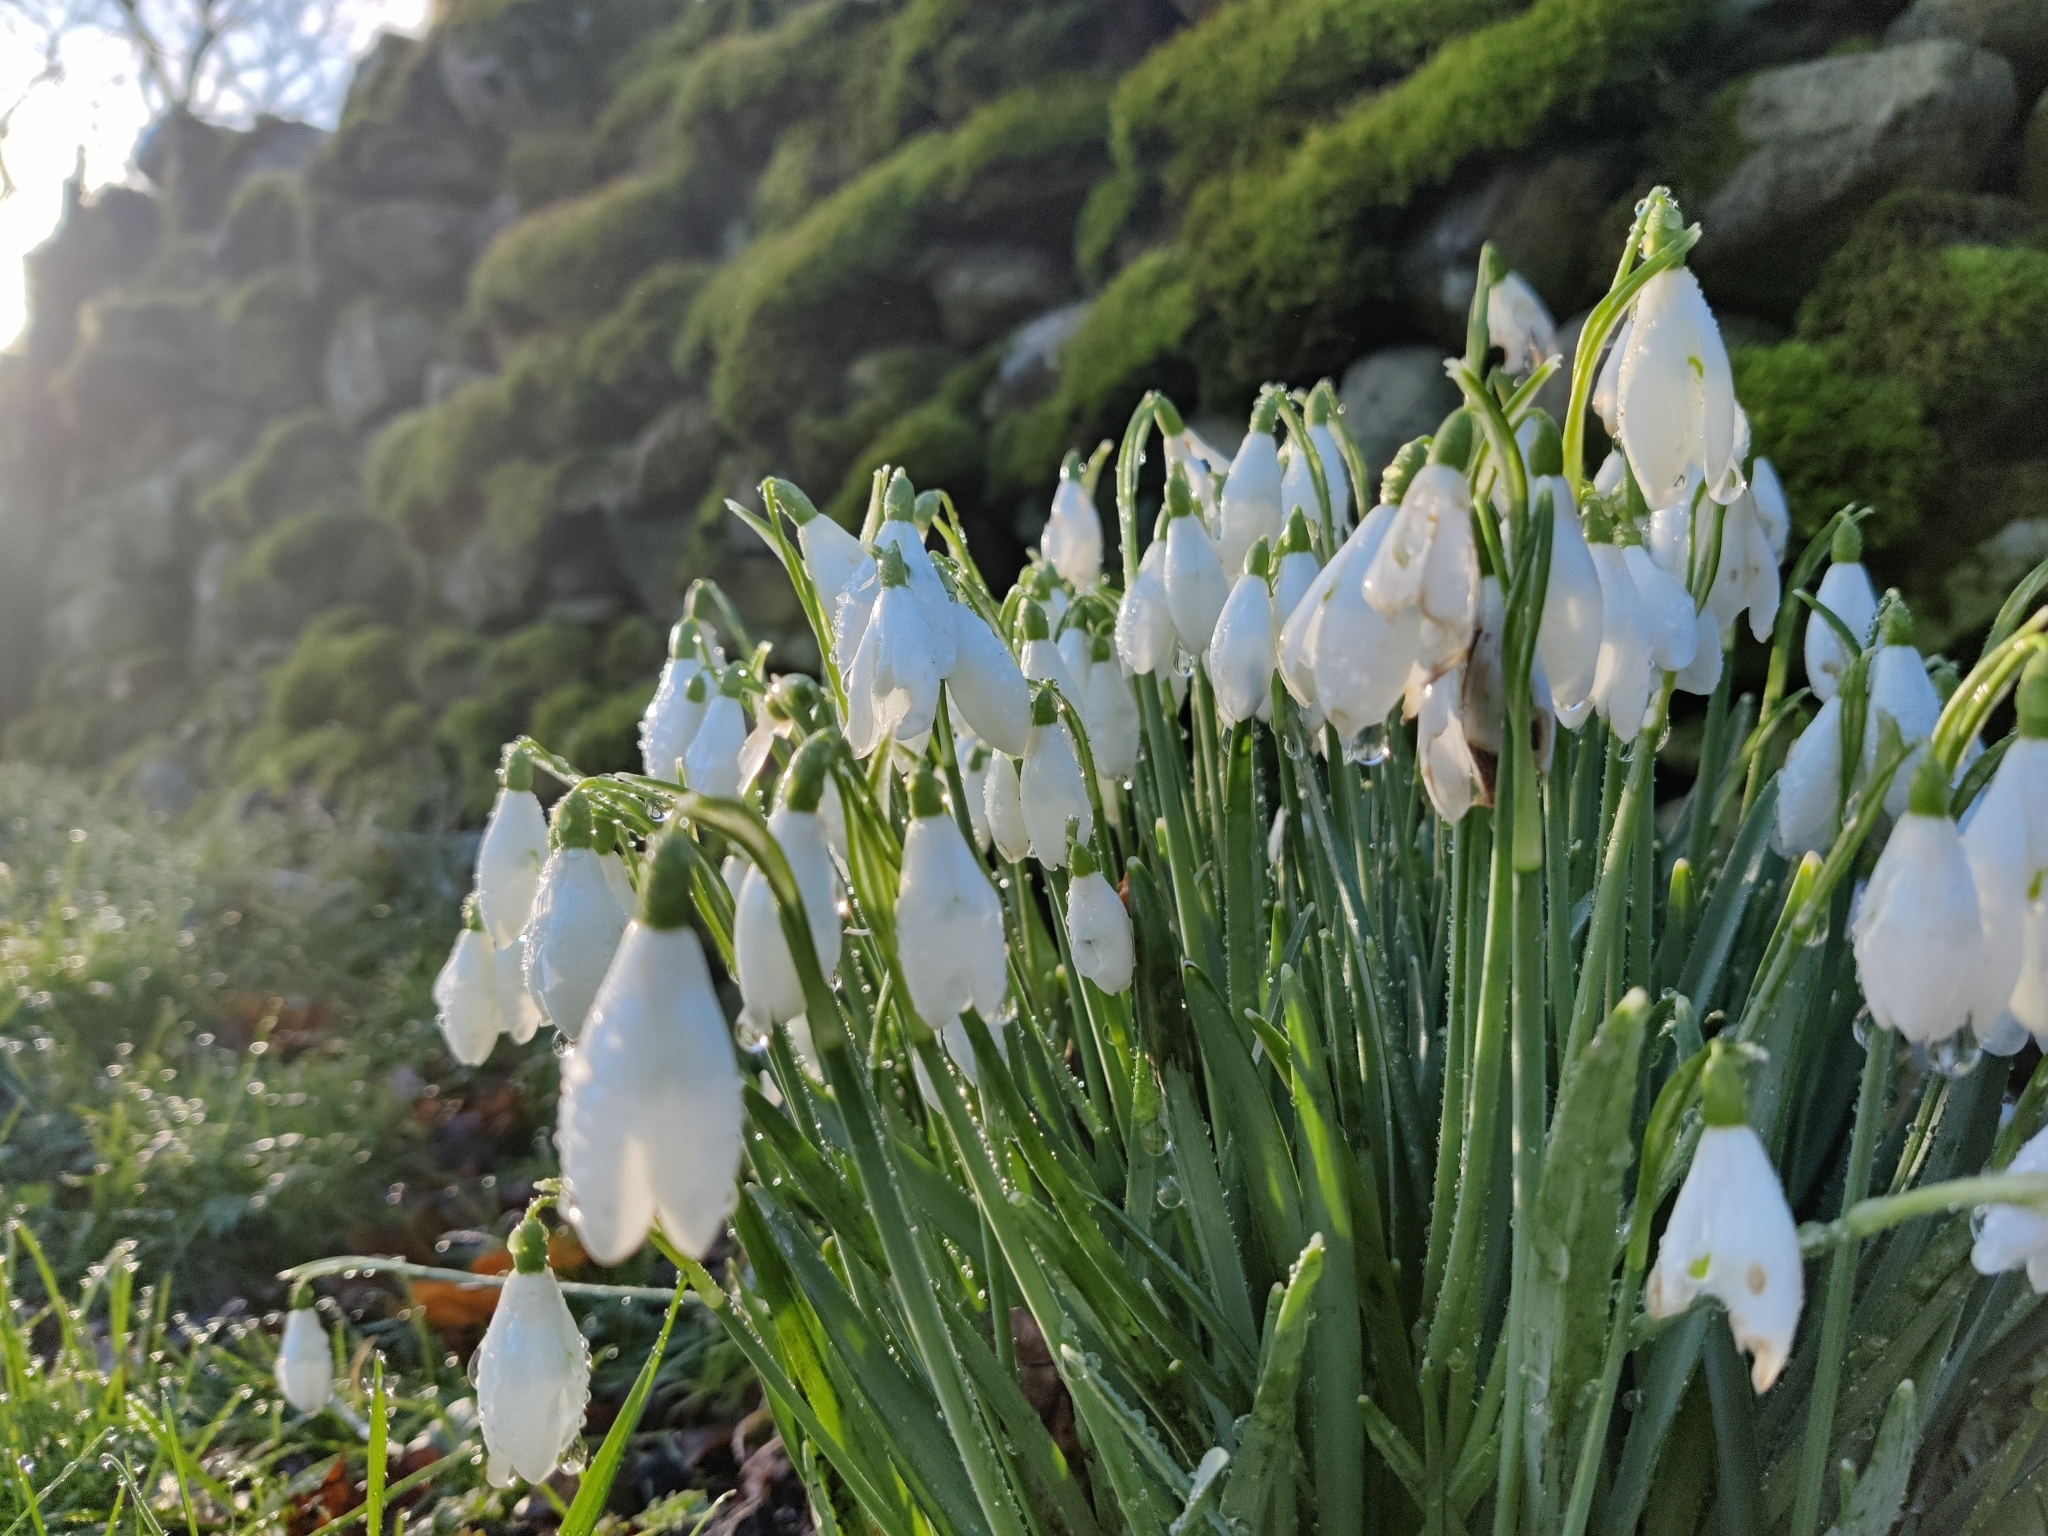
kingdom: Plantae
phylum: Tracheophyta
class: Liliopsida
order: Asparagales
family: Amaryllidaceae
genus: Galanthus
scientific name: Galanthus nivalis
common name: Snowdrop
